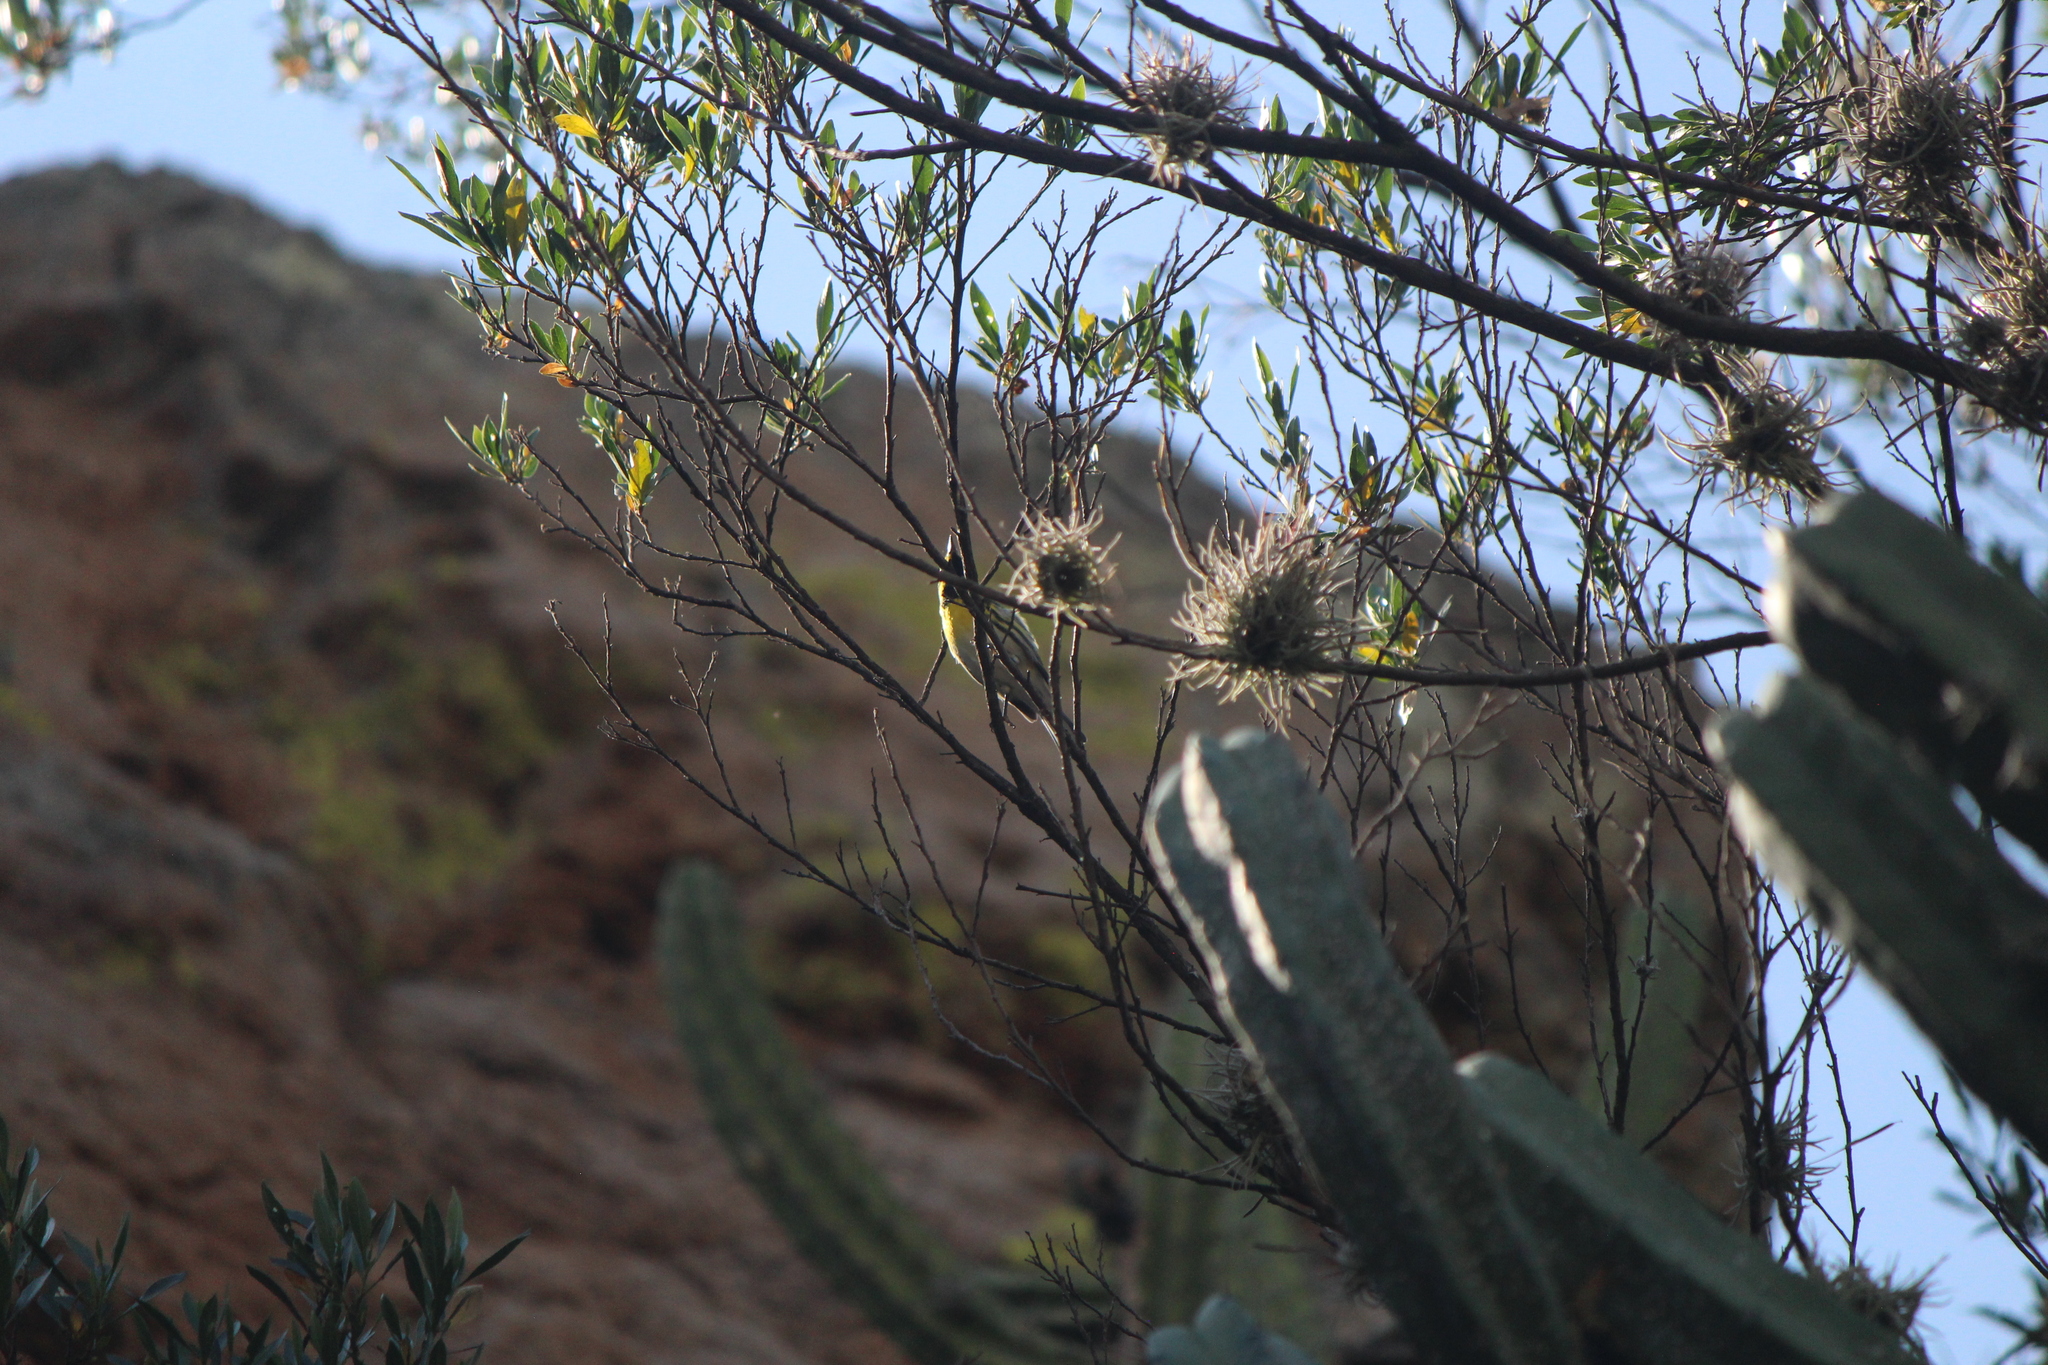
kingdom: Animalia
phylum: Chordata
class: Aves
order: Passeriformes
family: Parulidae
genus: Setophaga
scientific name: Setophaga townsendi
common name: Townsend's warbler
